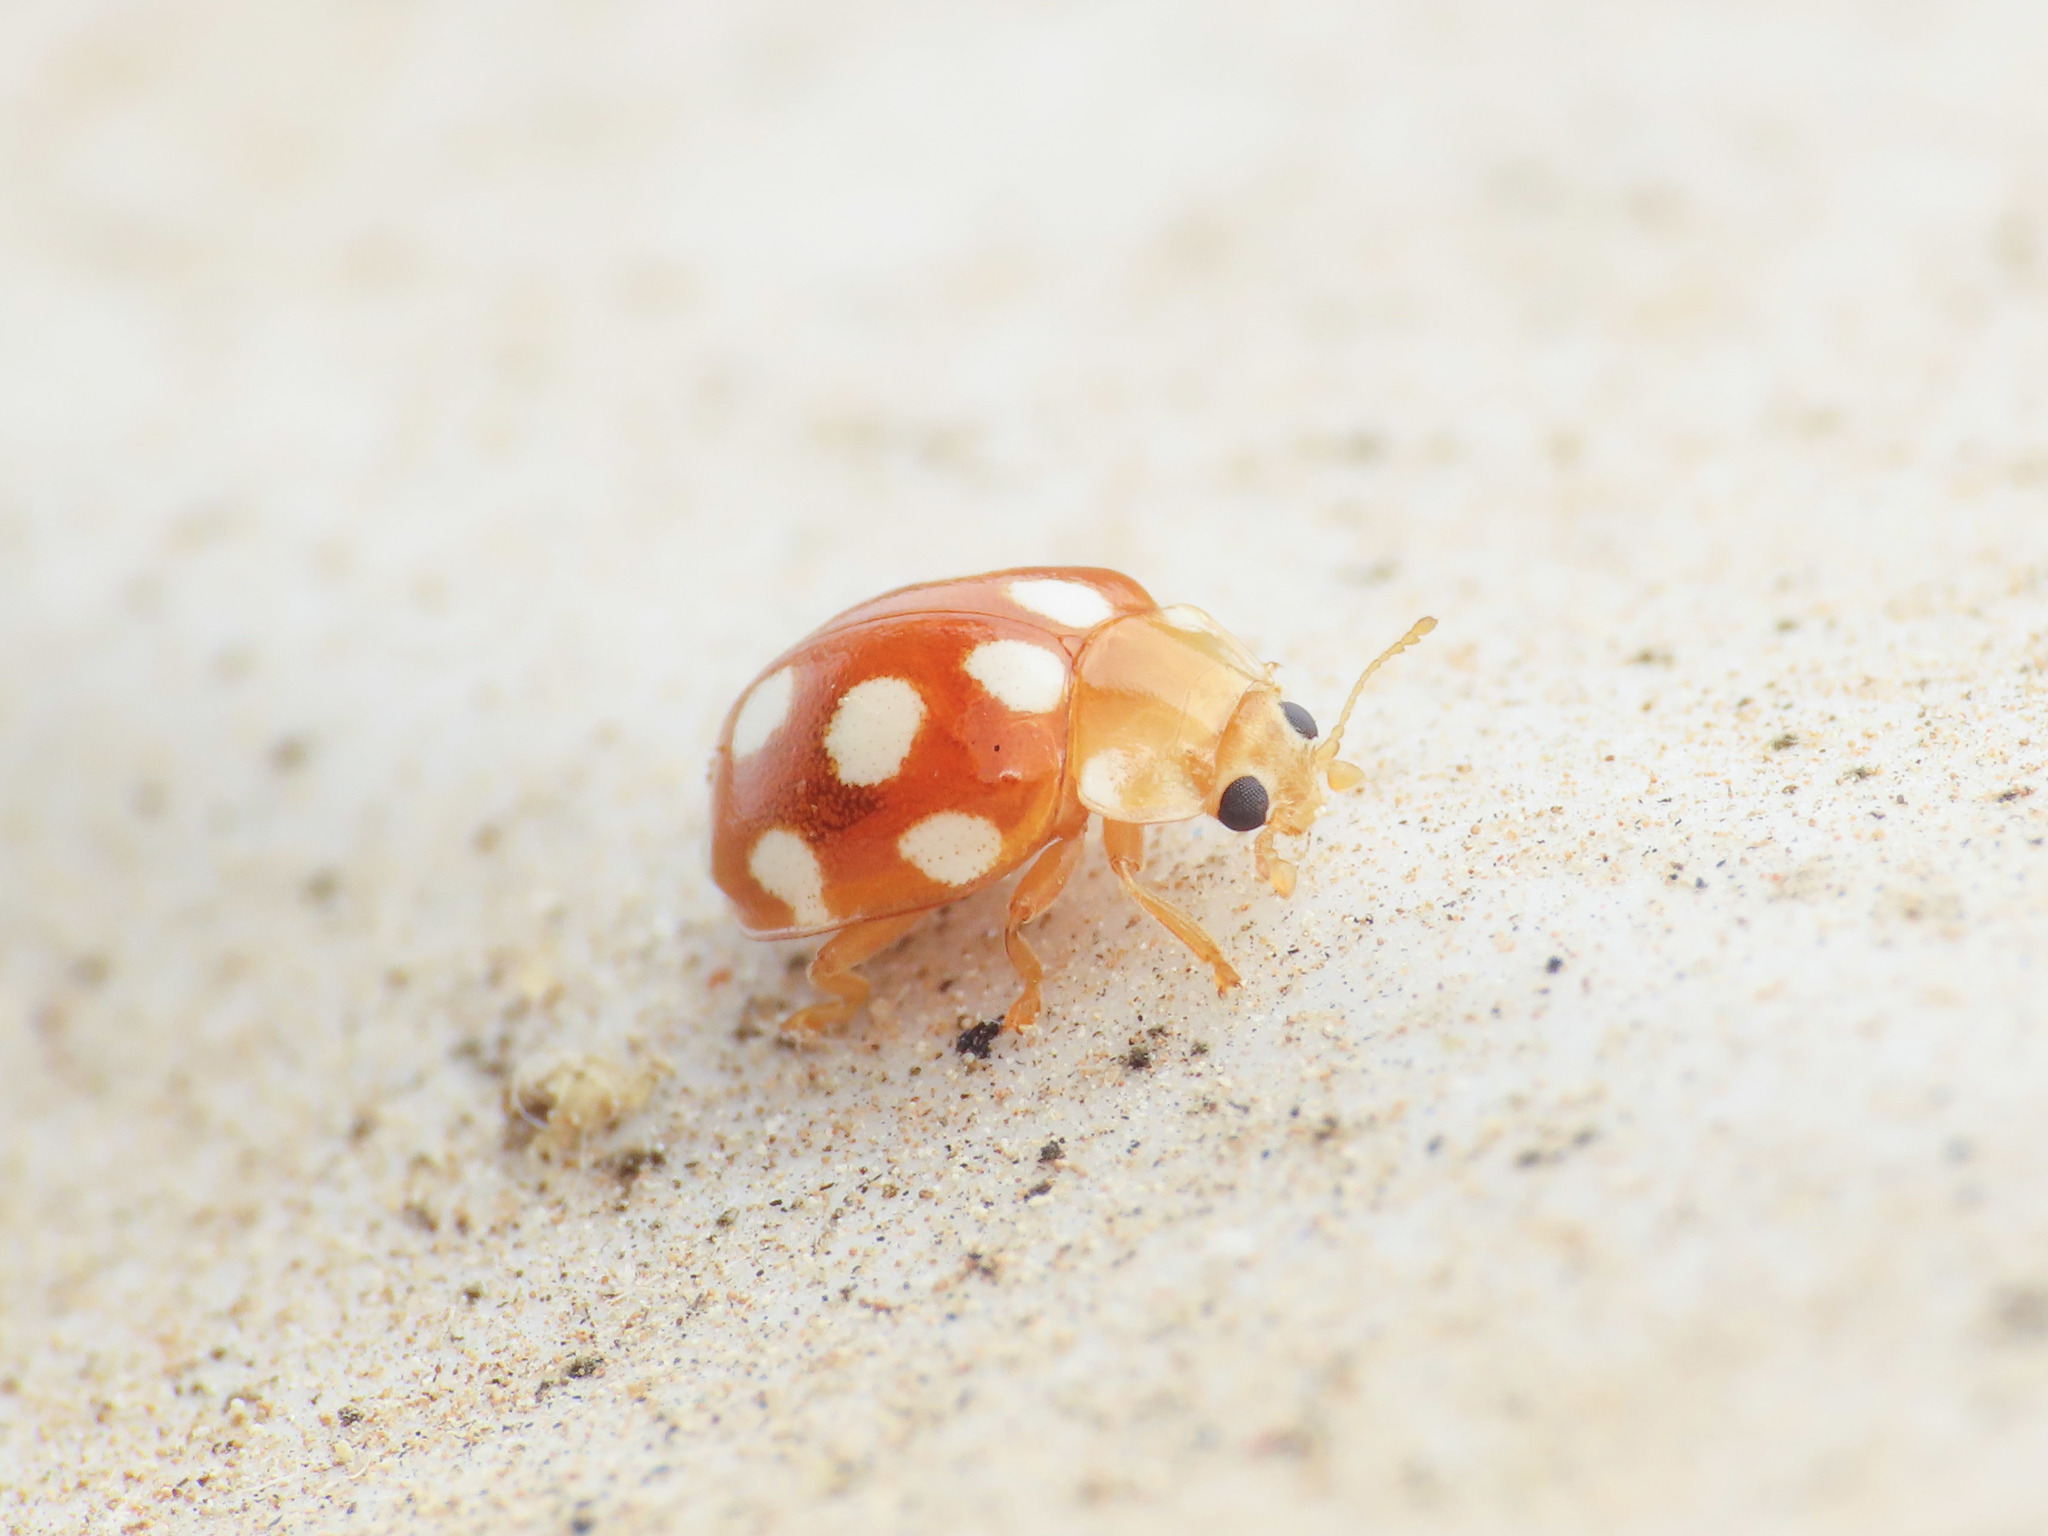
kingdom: Animalia
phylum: Arthropoda
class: Insecta
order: Coleoptera
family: Coccinellidae
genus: Vibidia
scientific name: Vibidia duodecimguttata
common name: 12-spot ladybird
